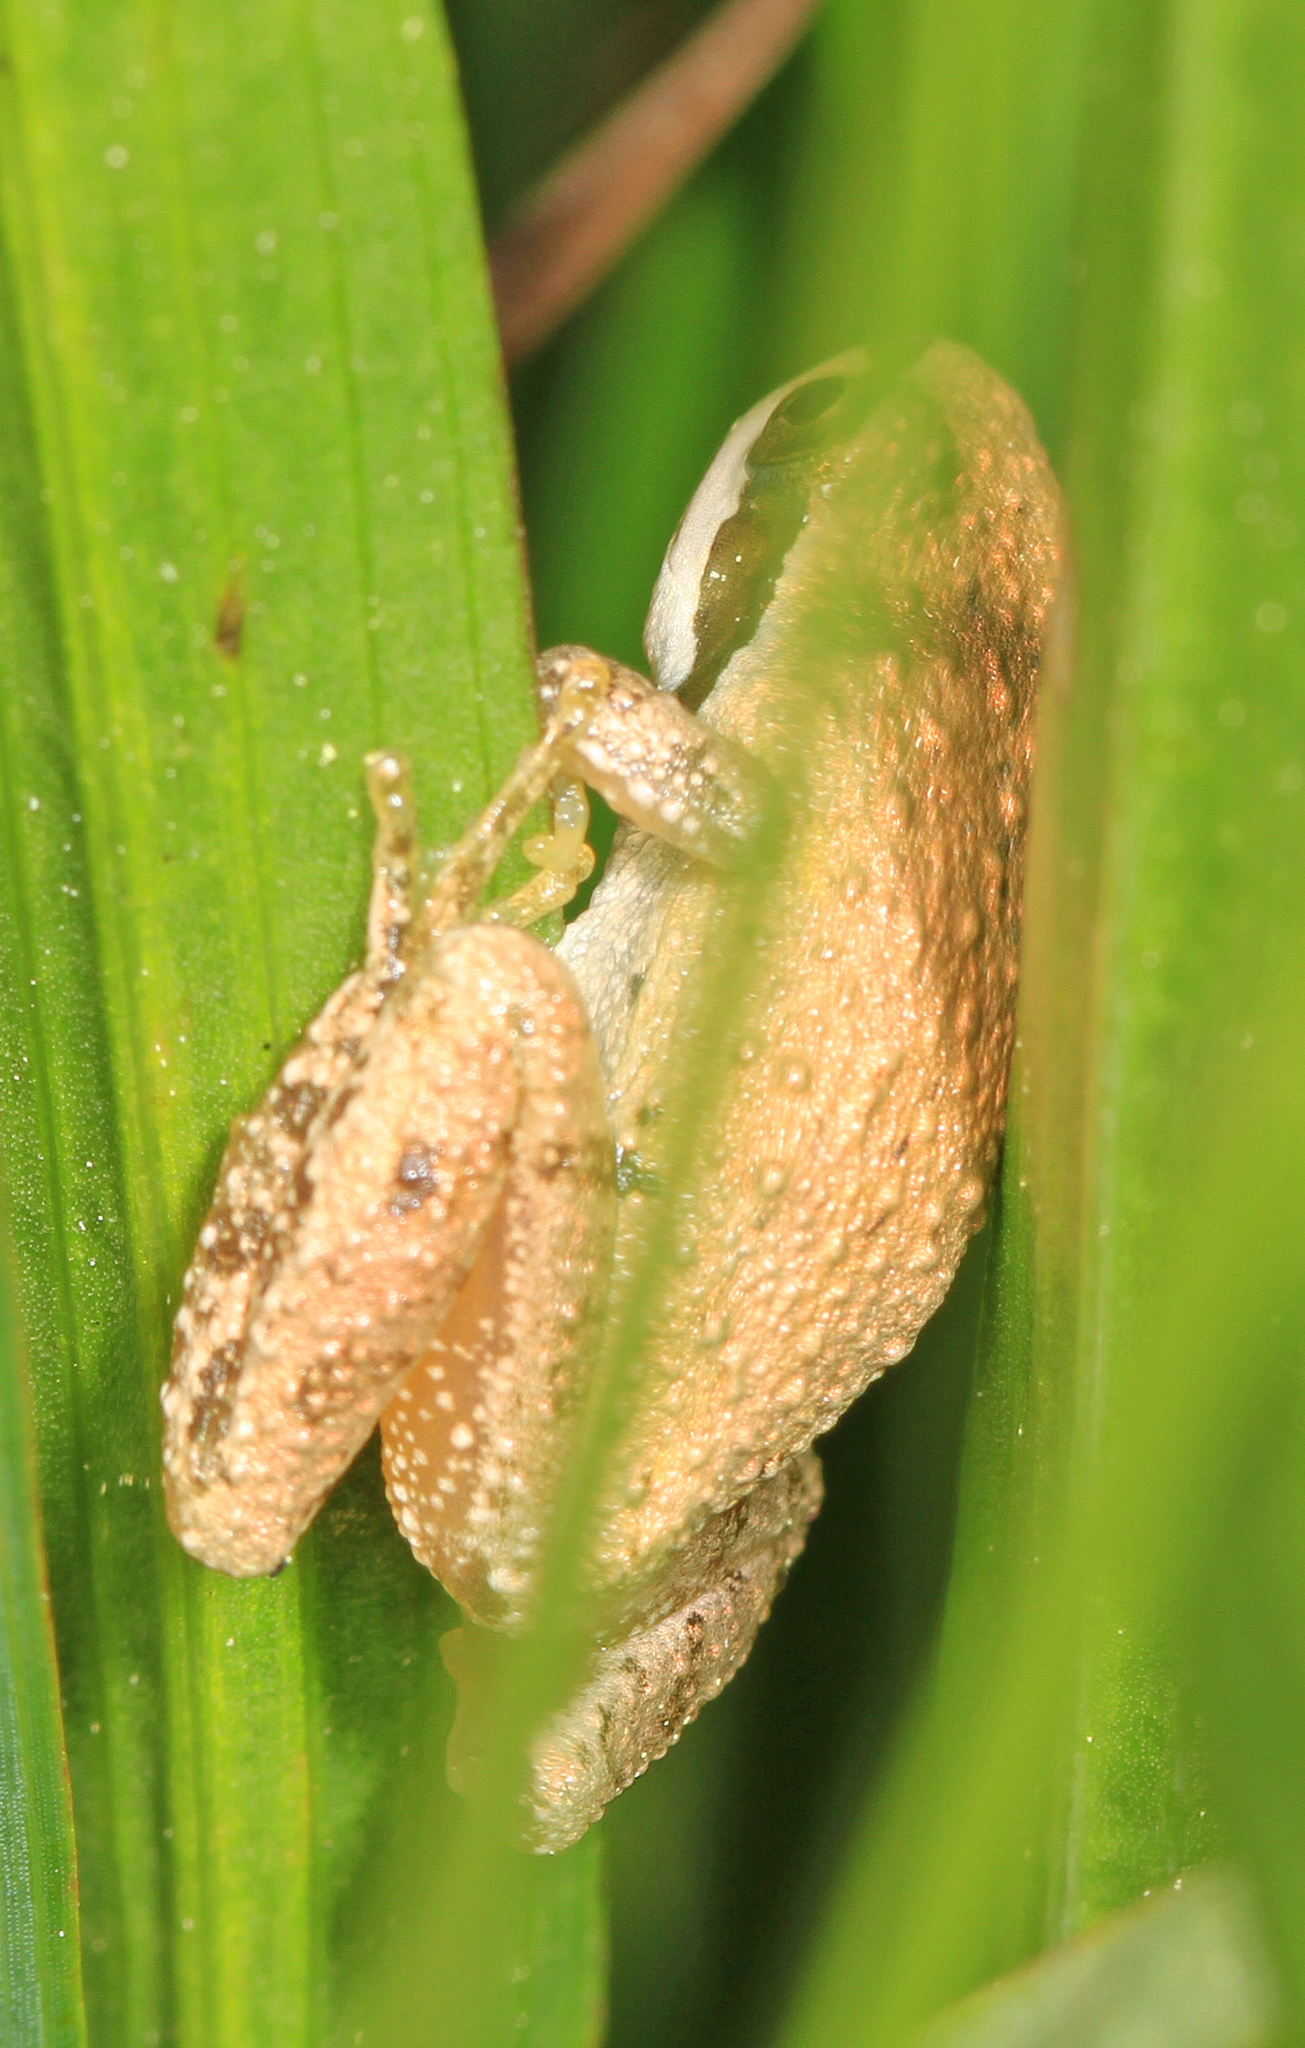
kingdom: Animalia
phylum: Chordata
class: Amphibia
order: Anura
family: Hylidae
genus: Pseudacris
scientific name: Pseudacris regilla
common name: Pacific chorus frog
